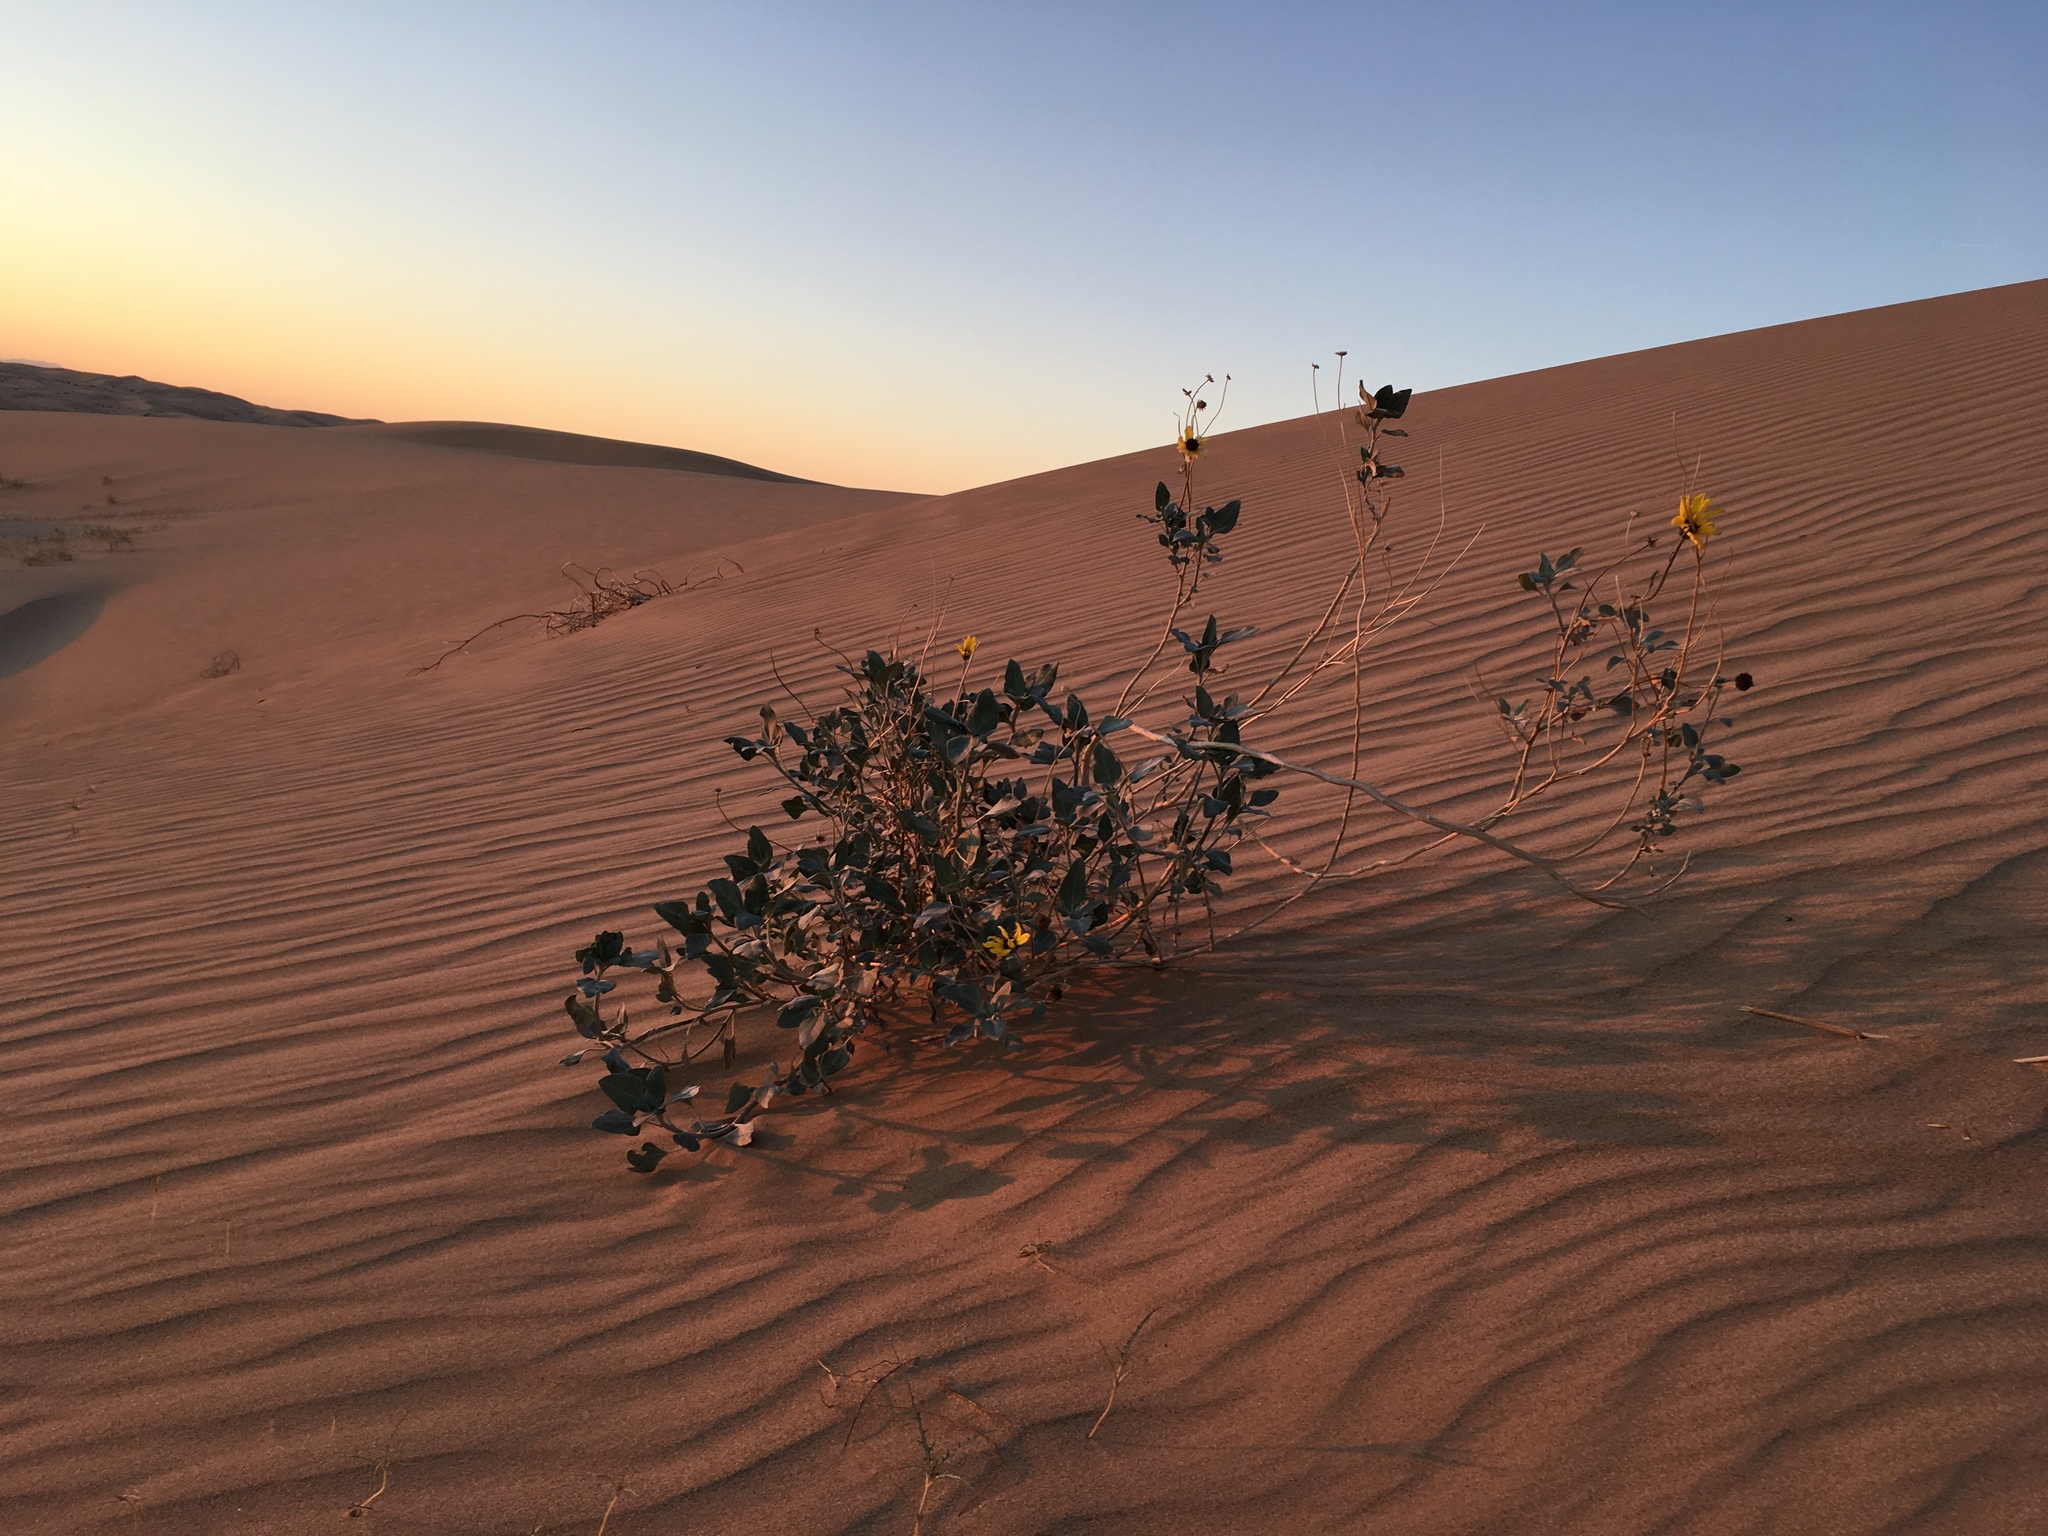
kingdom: Plantae
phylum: Tracheophyta
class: Magnoliopsida
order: Asterales
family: Asteraceae
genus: Helianthus
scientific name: Helianthus niveus
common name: Snowy sunflower
